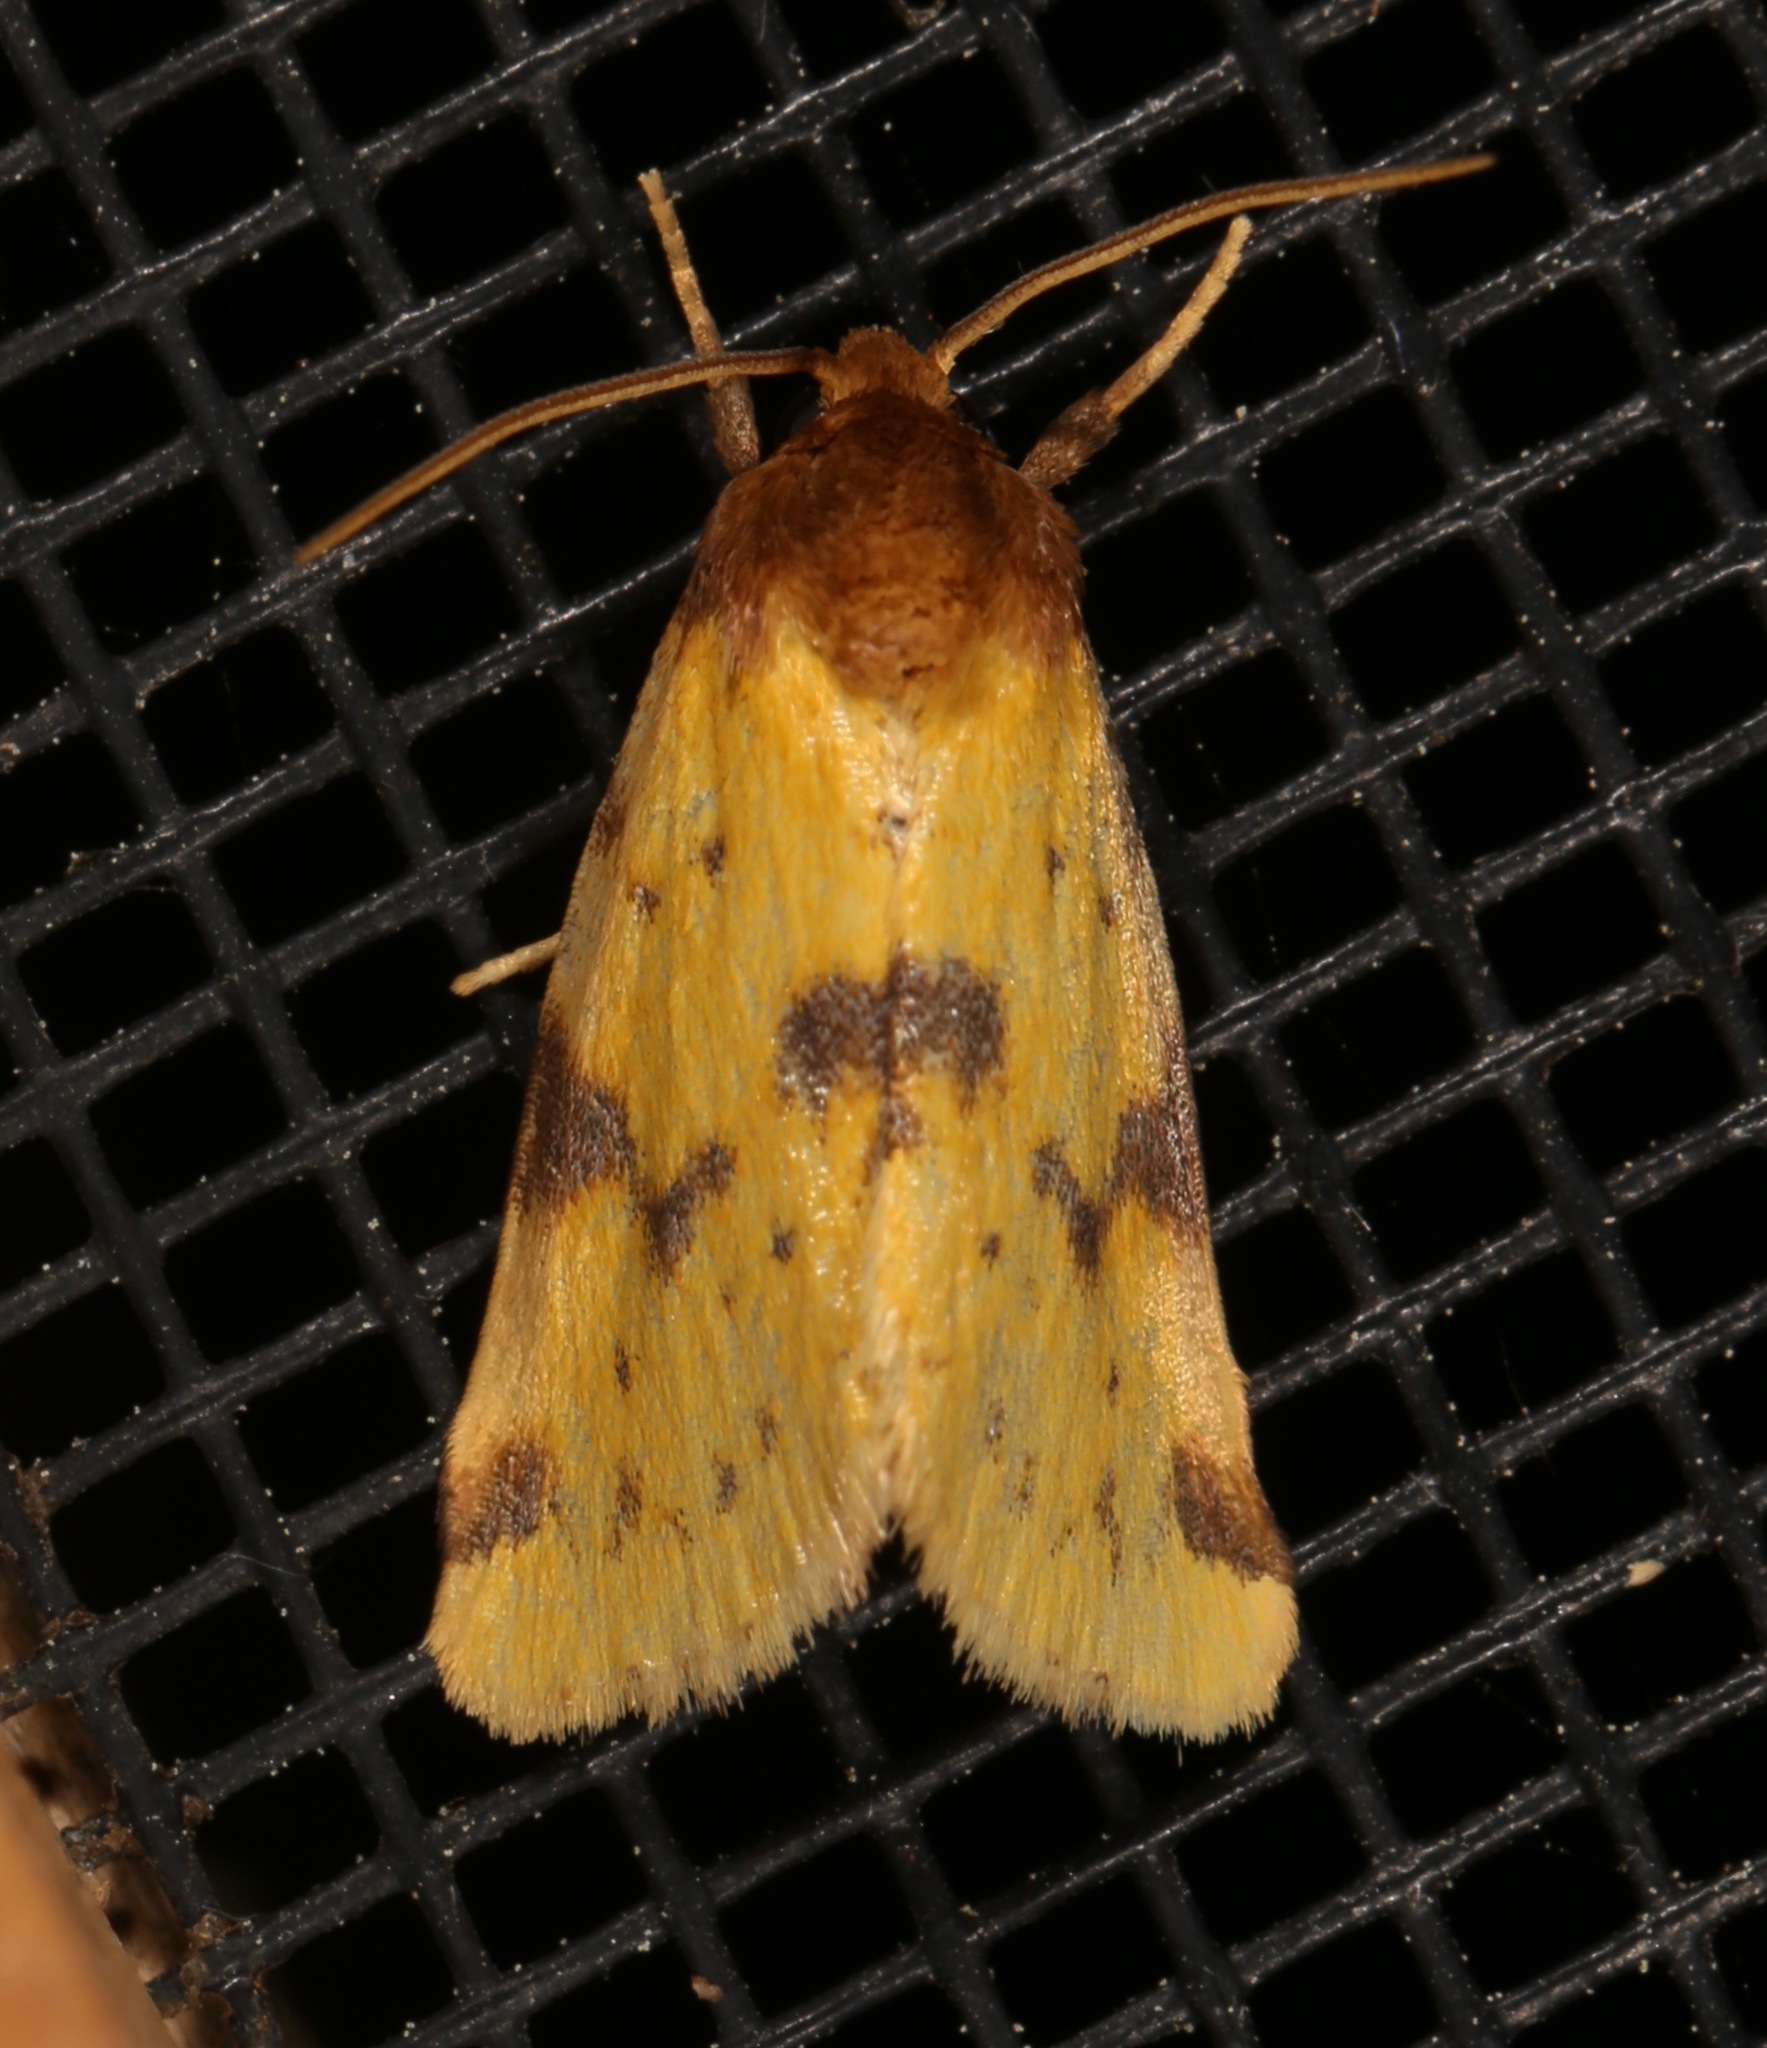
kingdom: Animalia
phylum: Arthropoda
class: Insecta
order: Lepidoptera
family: Noctuidae
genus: Azenia
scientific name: Azenia obtusa
